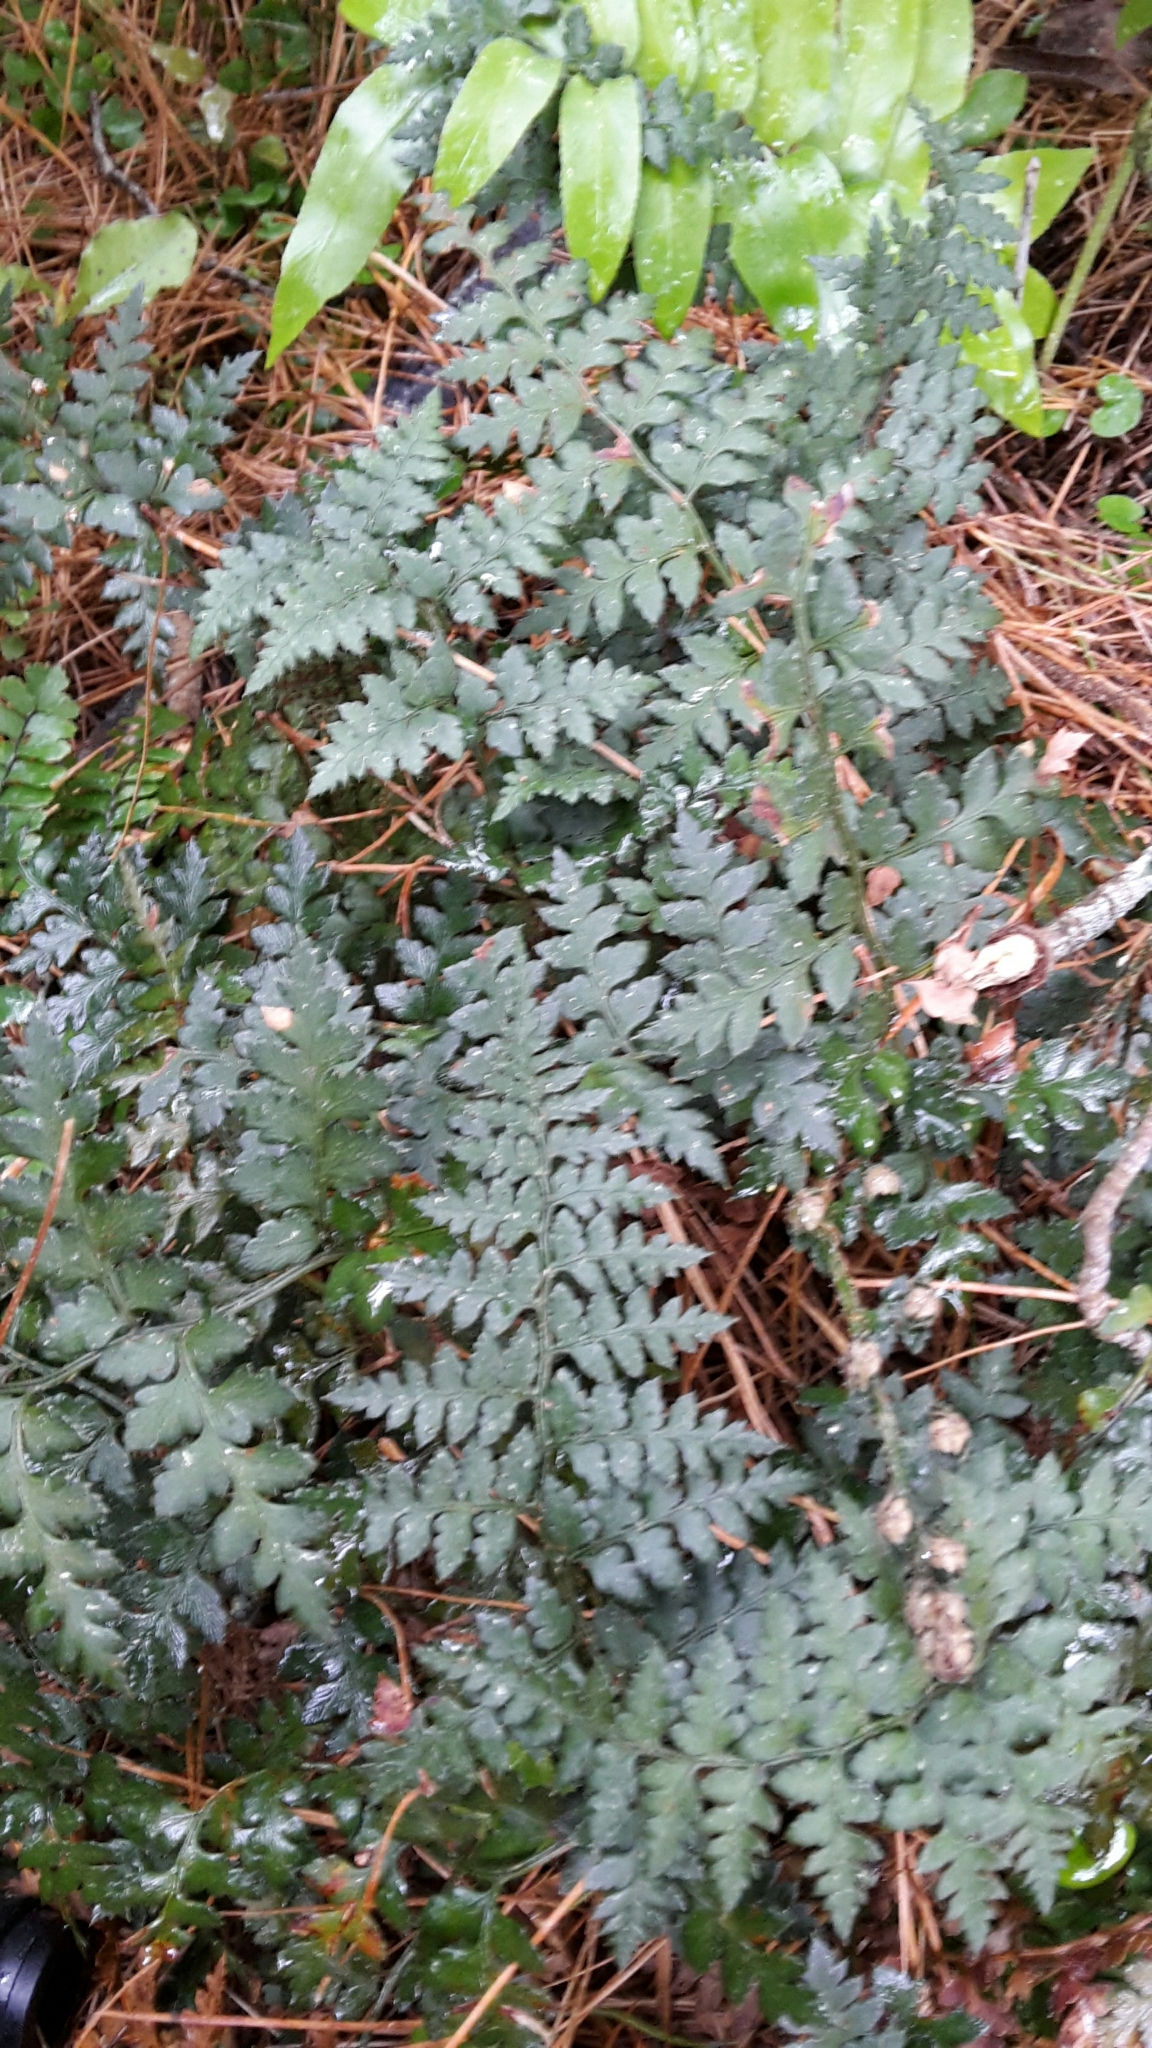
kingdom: Plantae
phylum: Tracheophyta
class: Polypodiopsida
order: Polypodiales
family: Dryopteridaceae
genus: Polystichum
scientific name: Polystichum oculatum
